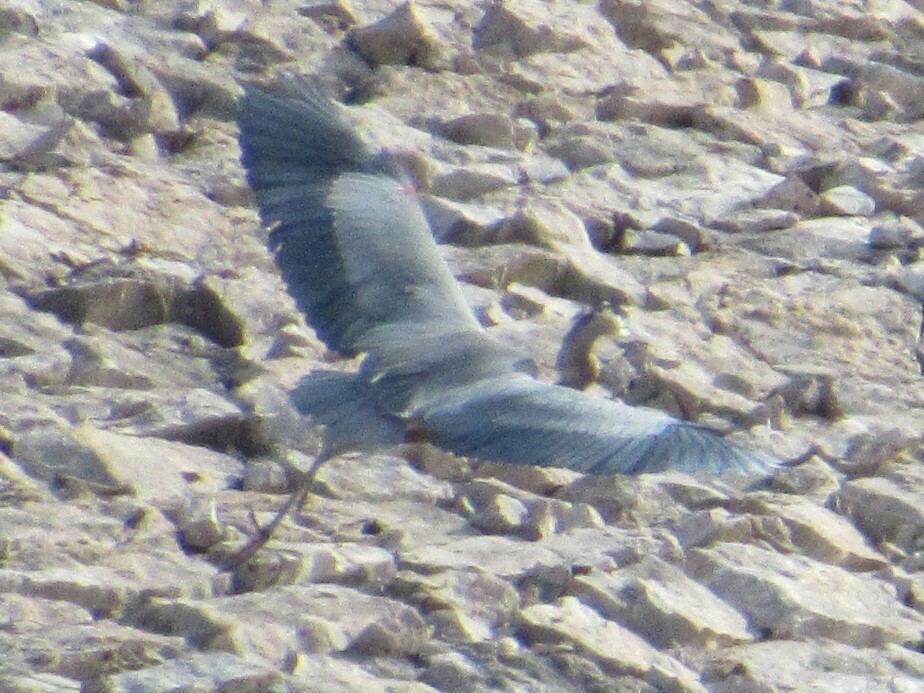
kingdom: Animalia
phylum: Chordata
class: Aves
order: Pelecaniformes
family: Ardeidae
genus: Ardea
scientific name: Ardea herodias
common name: Great blue heron
